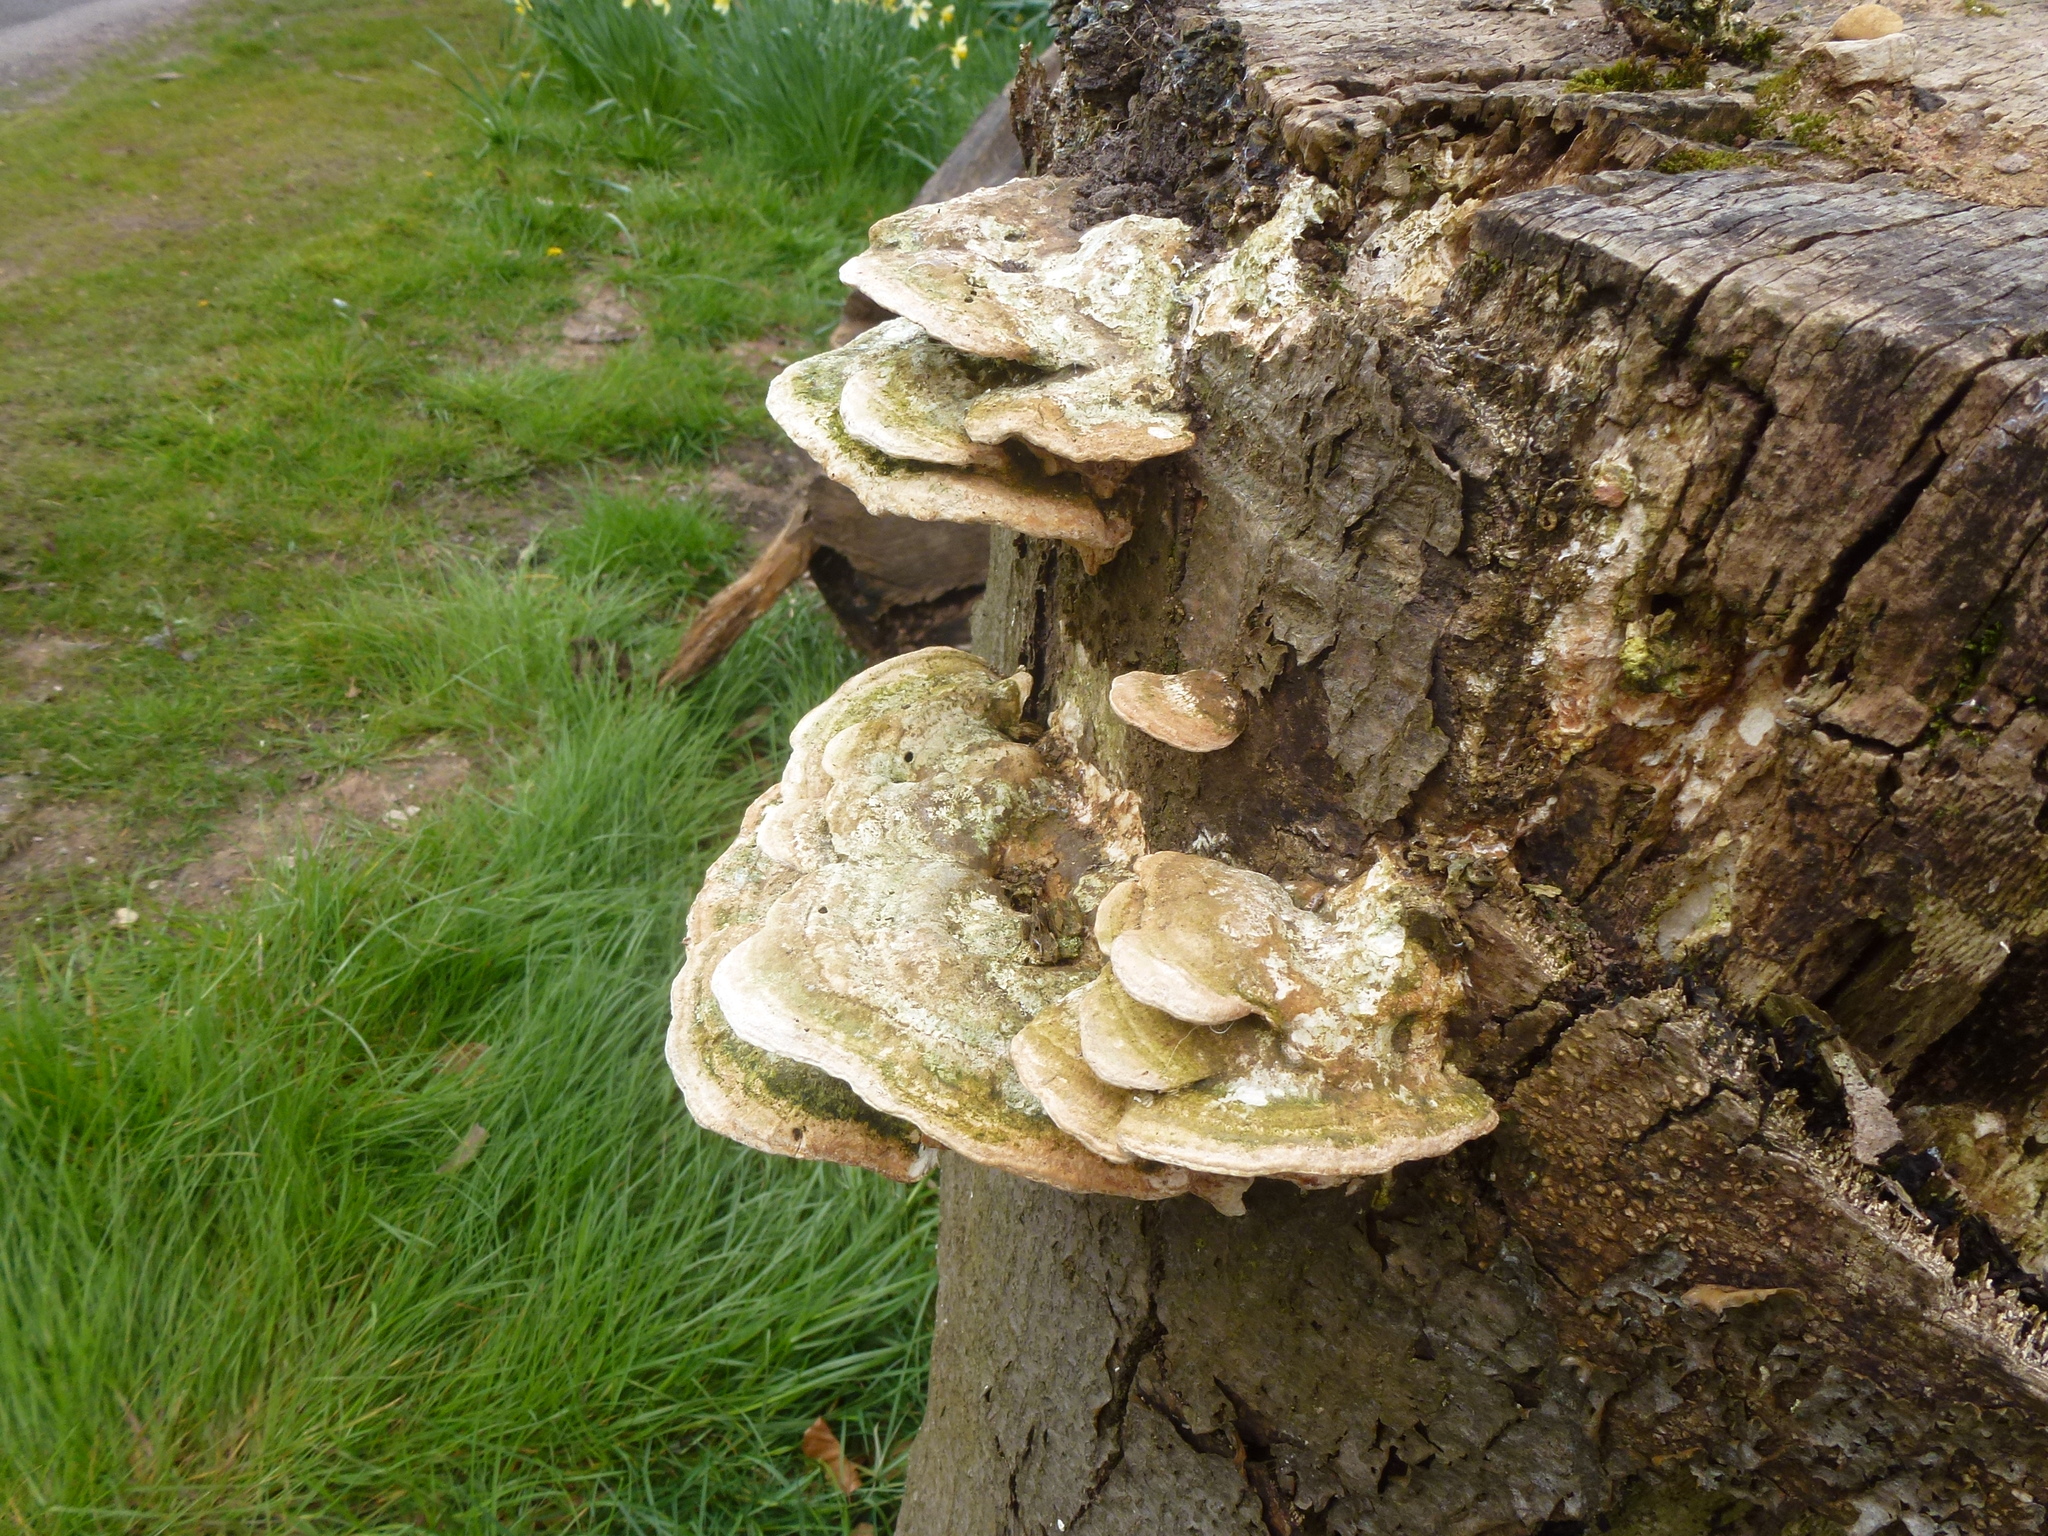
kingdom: Fungi
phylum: Basidiomycota
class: Agaricomycetes
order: Polyporales
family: Polyporaceae
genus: Trametes
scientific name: Trametes gibbosa
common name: Lumpy bracket
